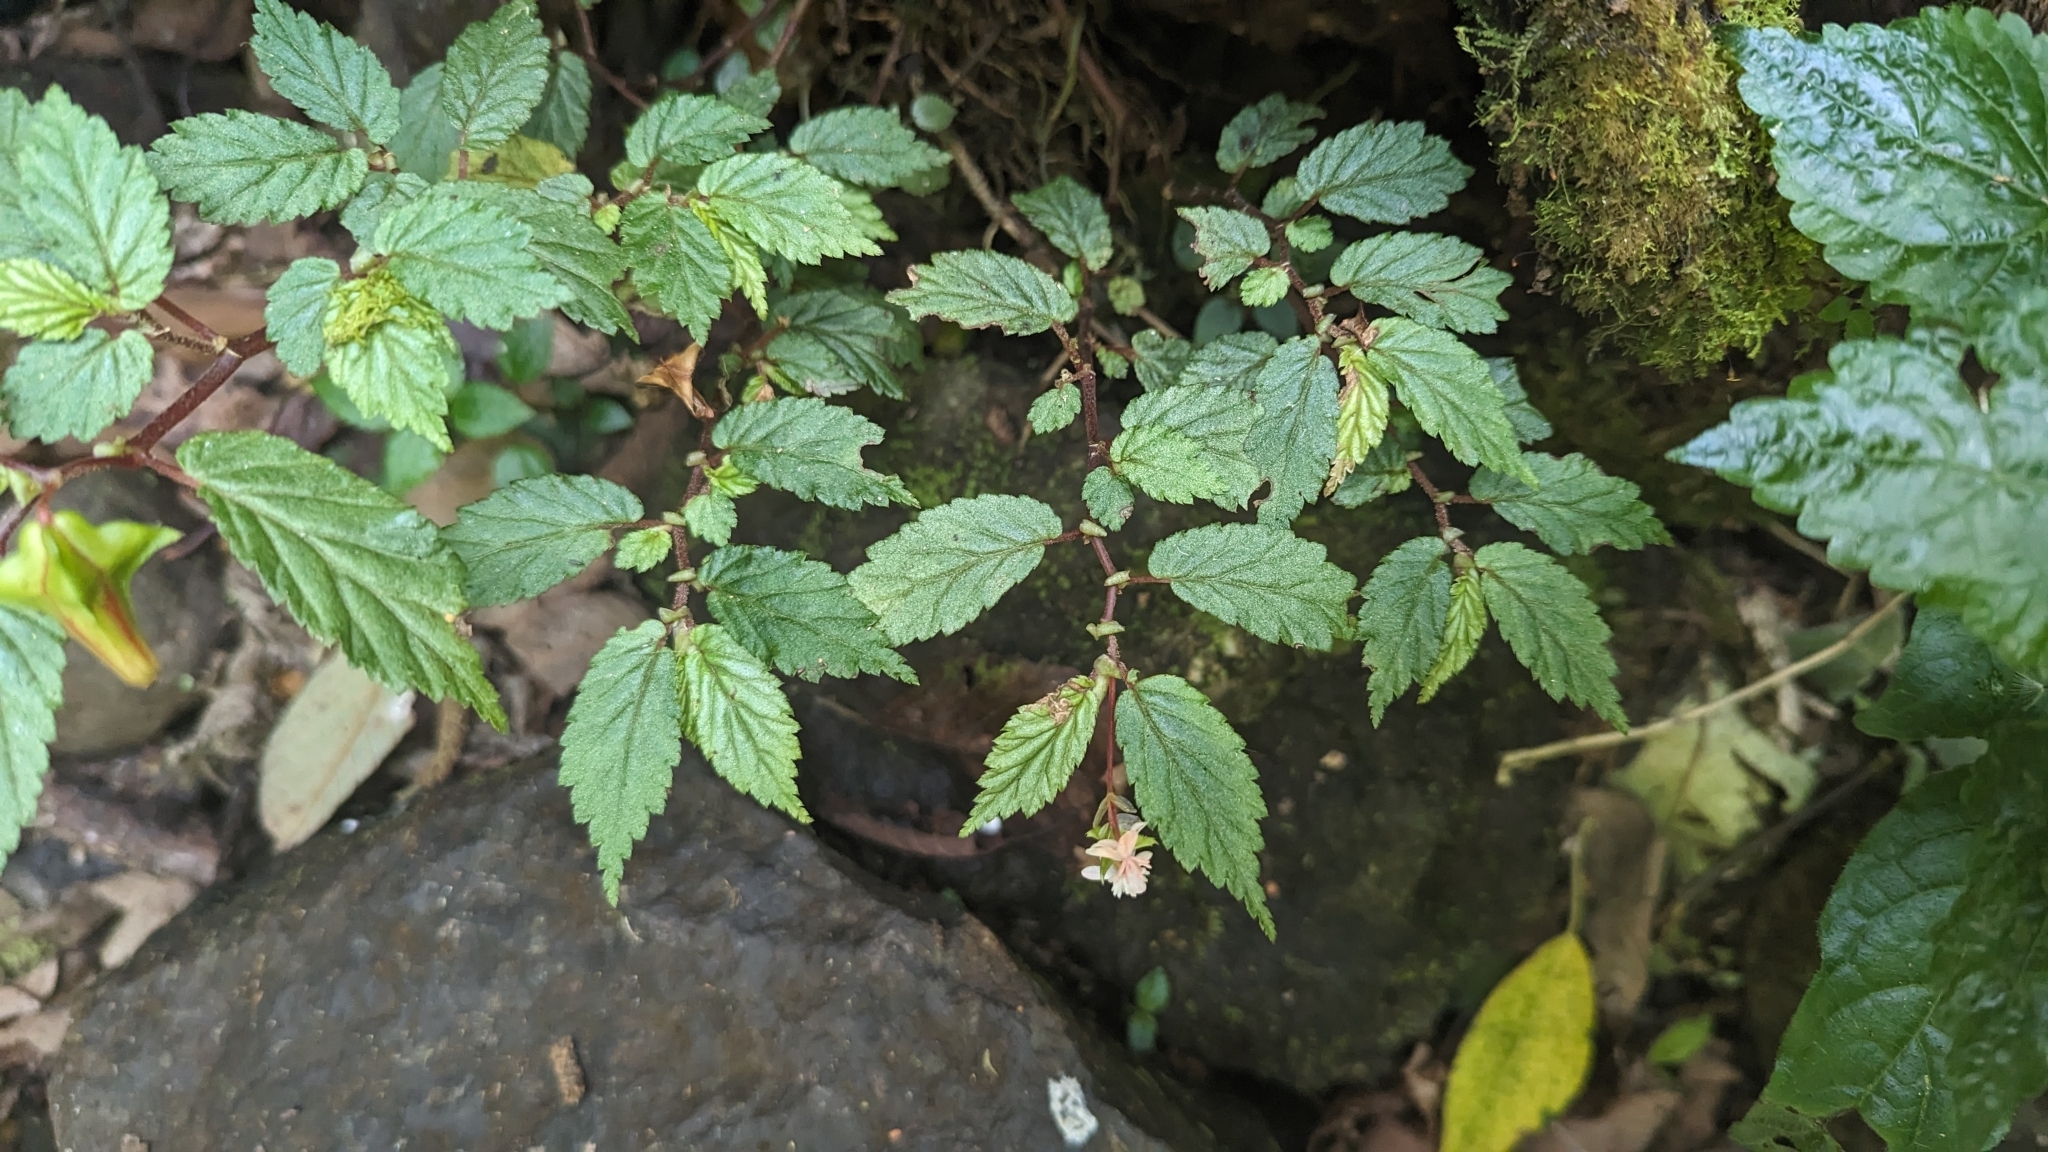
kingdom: Plantae
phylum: Tracheophyta
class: Magnoliopsida
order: Cucurbitales
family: Begoniaceae
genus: Begonia
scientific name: Begonia urticae
